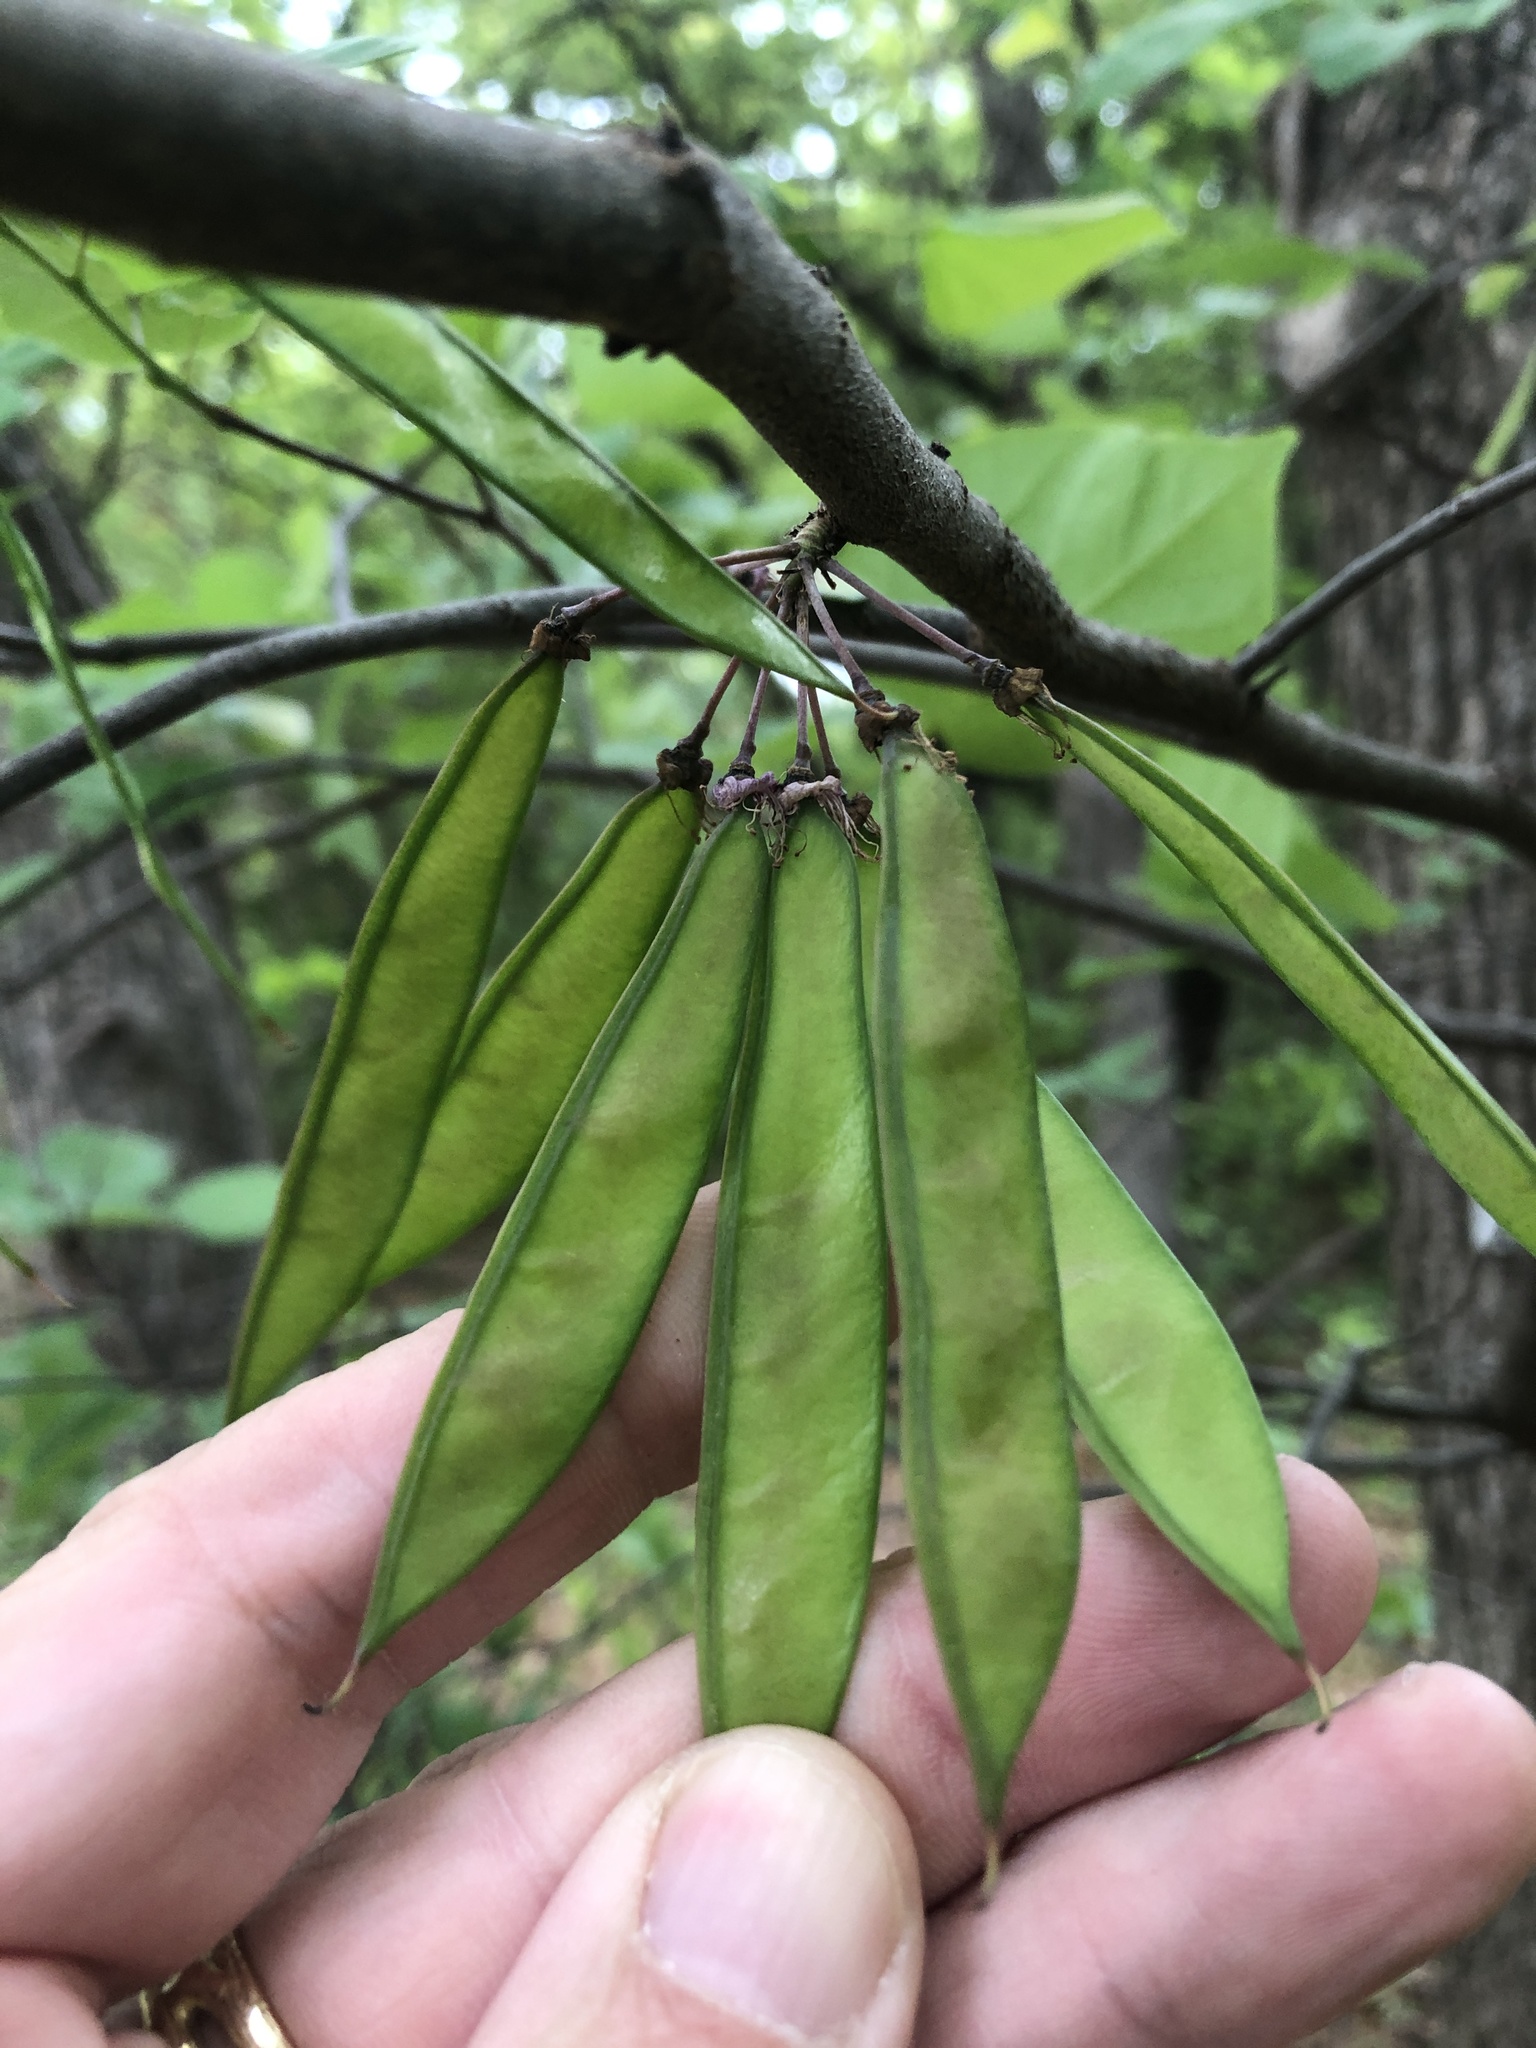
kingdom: Plantae
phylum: Tracheophyta
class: Magnoliopsida
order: Fabales
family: Fabaceae
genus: Cercis
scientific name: Cercis canadensis
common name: Eastern redbud
